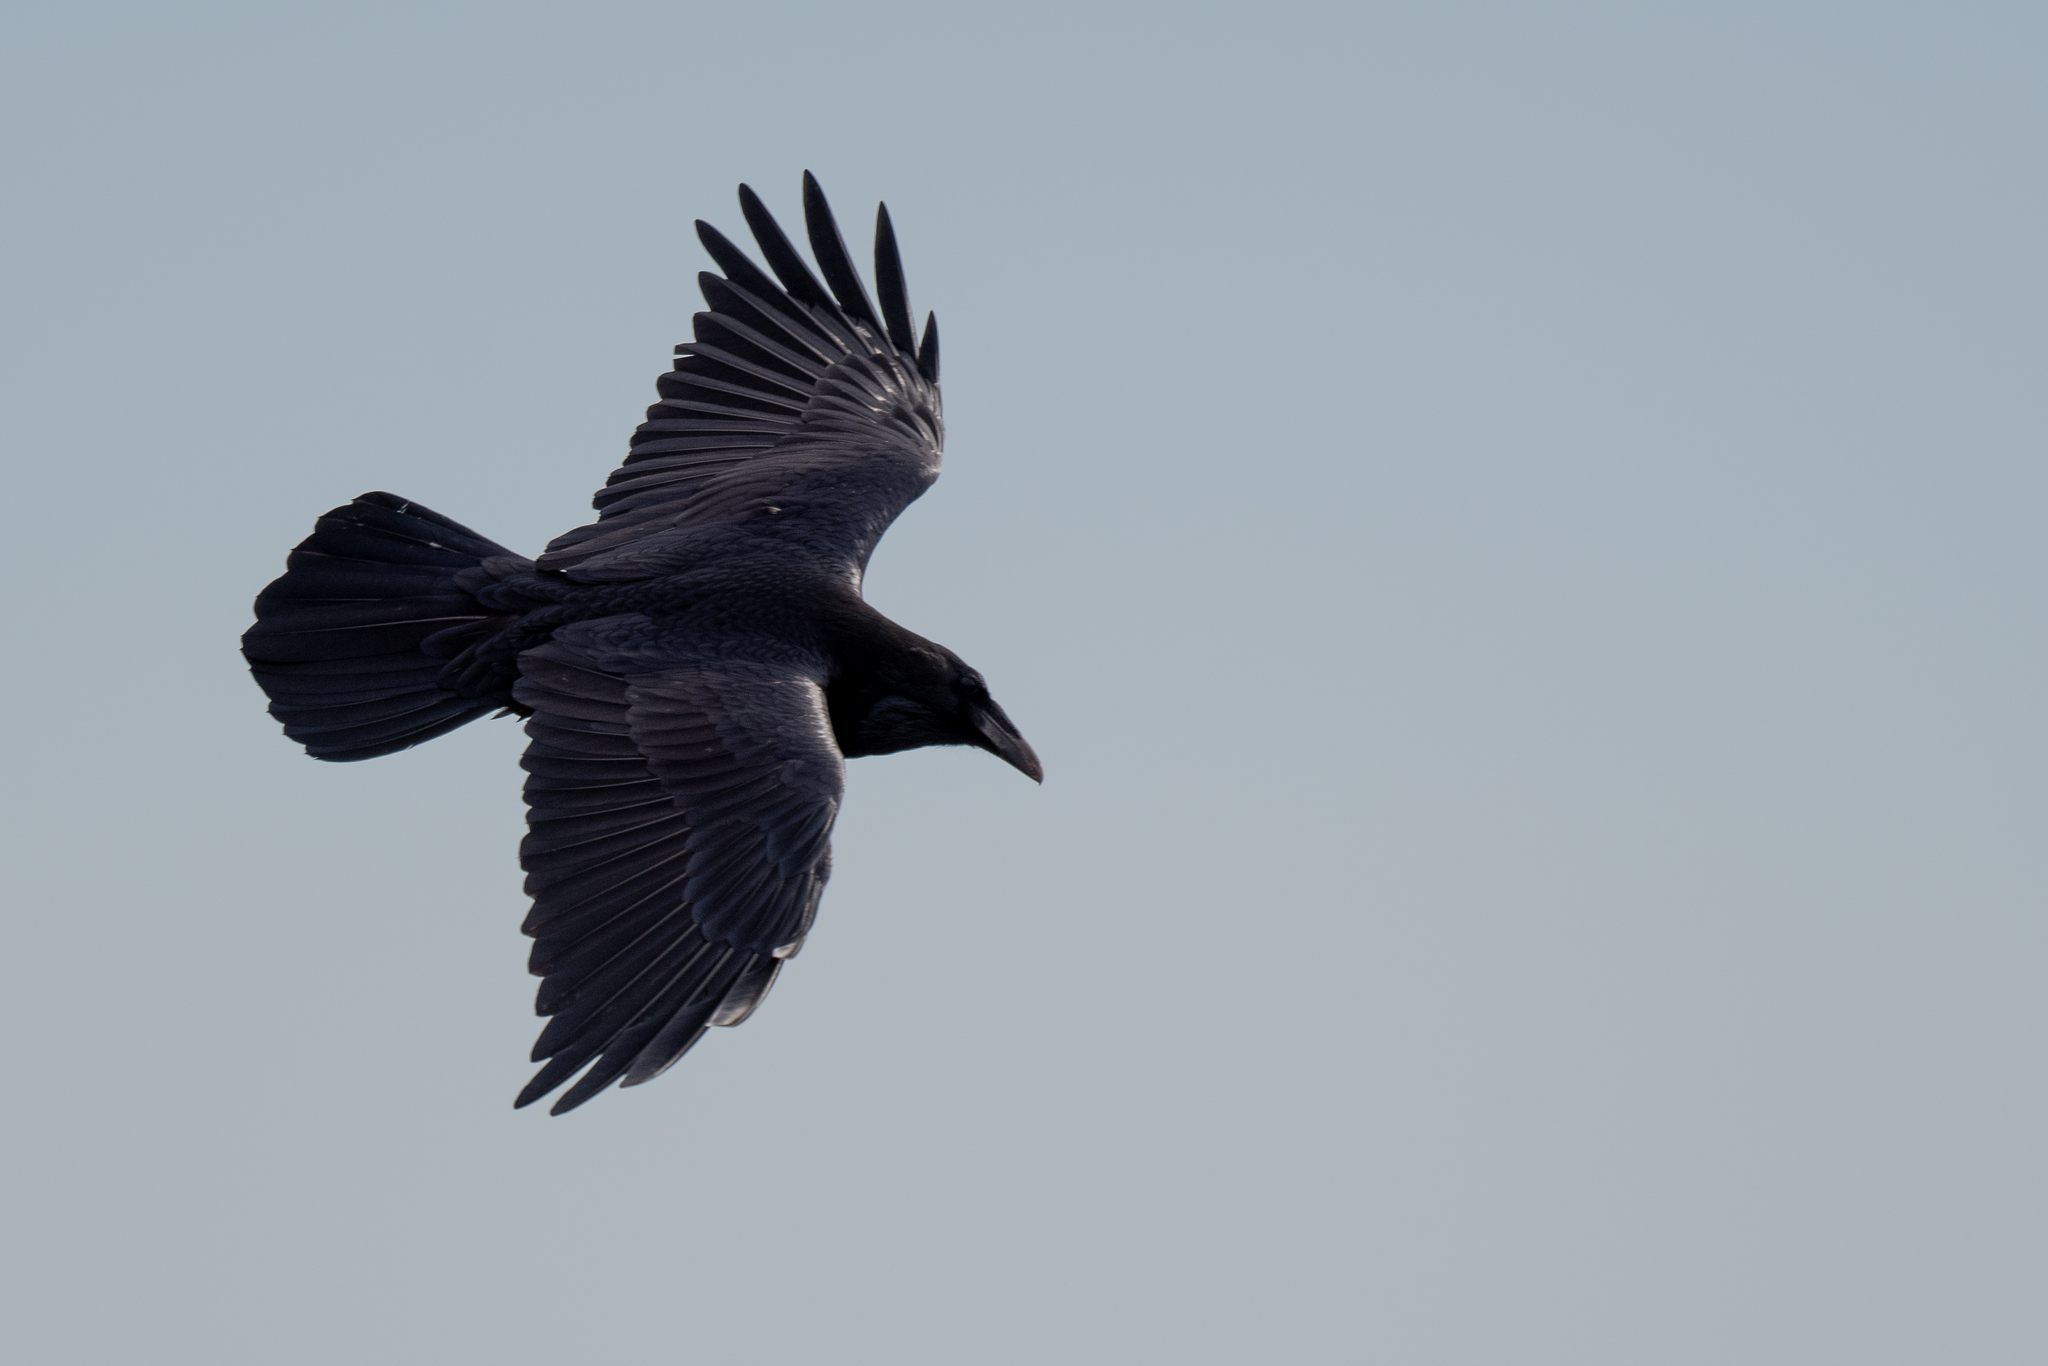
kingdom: Animalia
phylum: Chordata
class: Aves
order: Passeriformes
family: Corvidae
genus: Corvus
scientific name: Corvus corax
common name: Common raven
